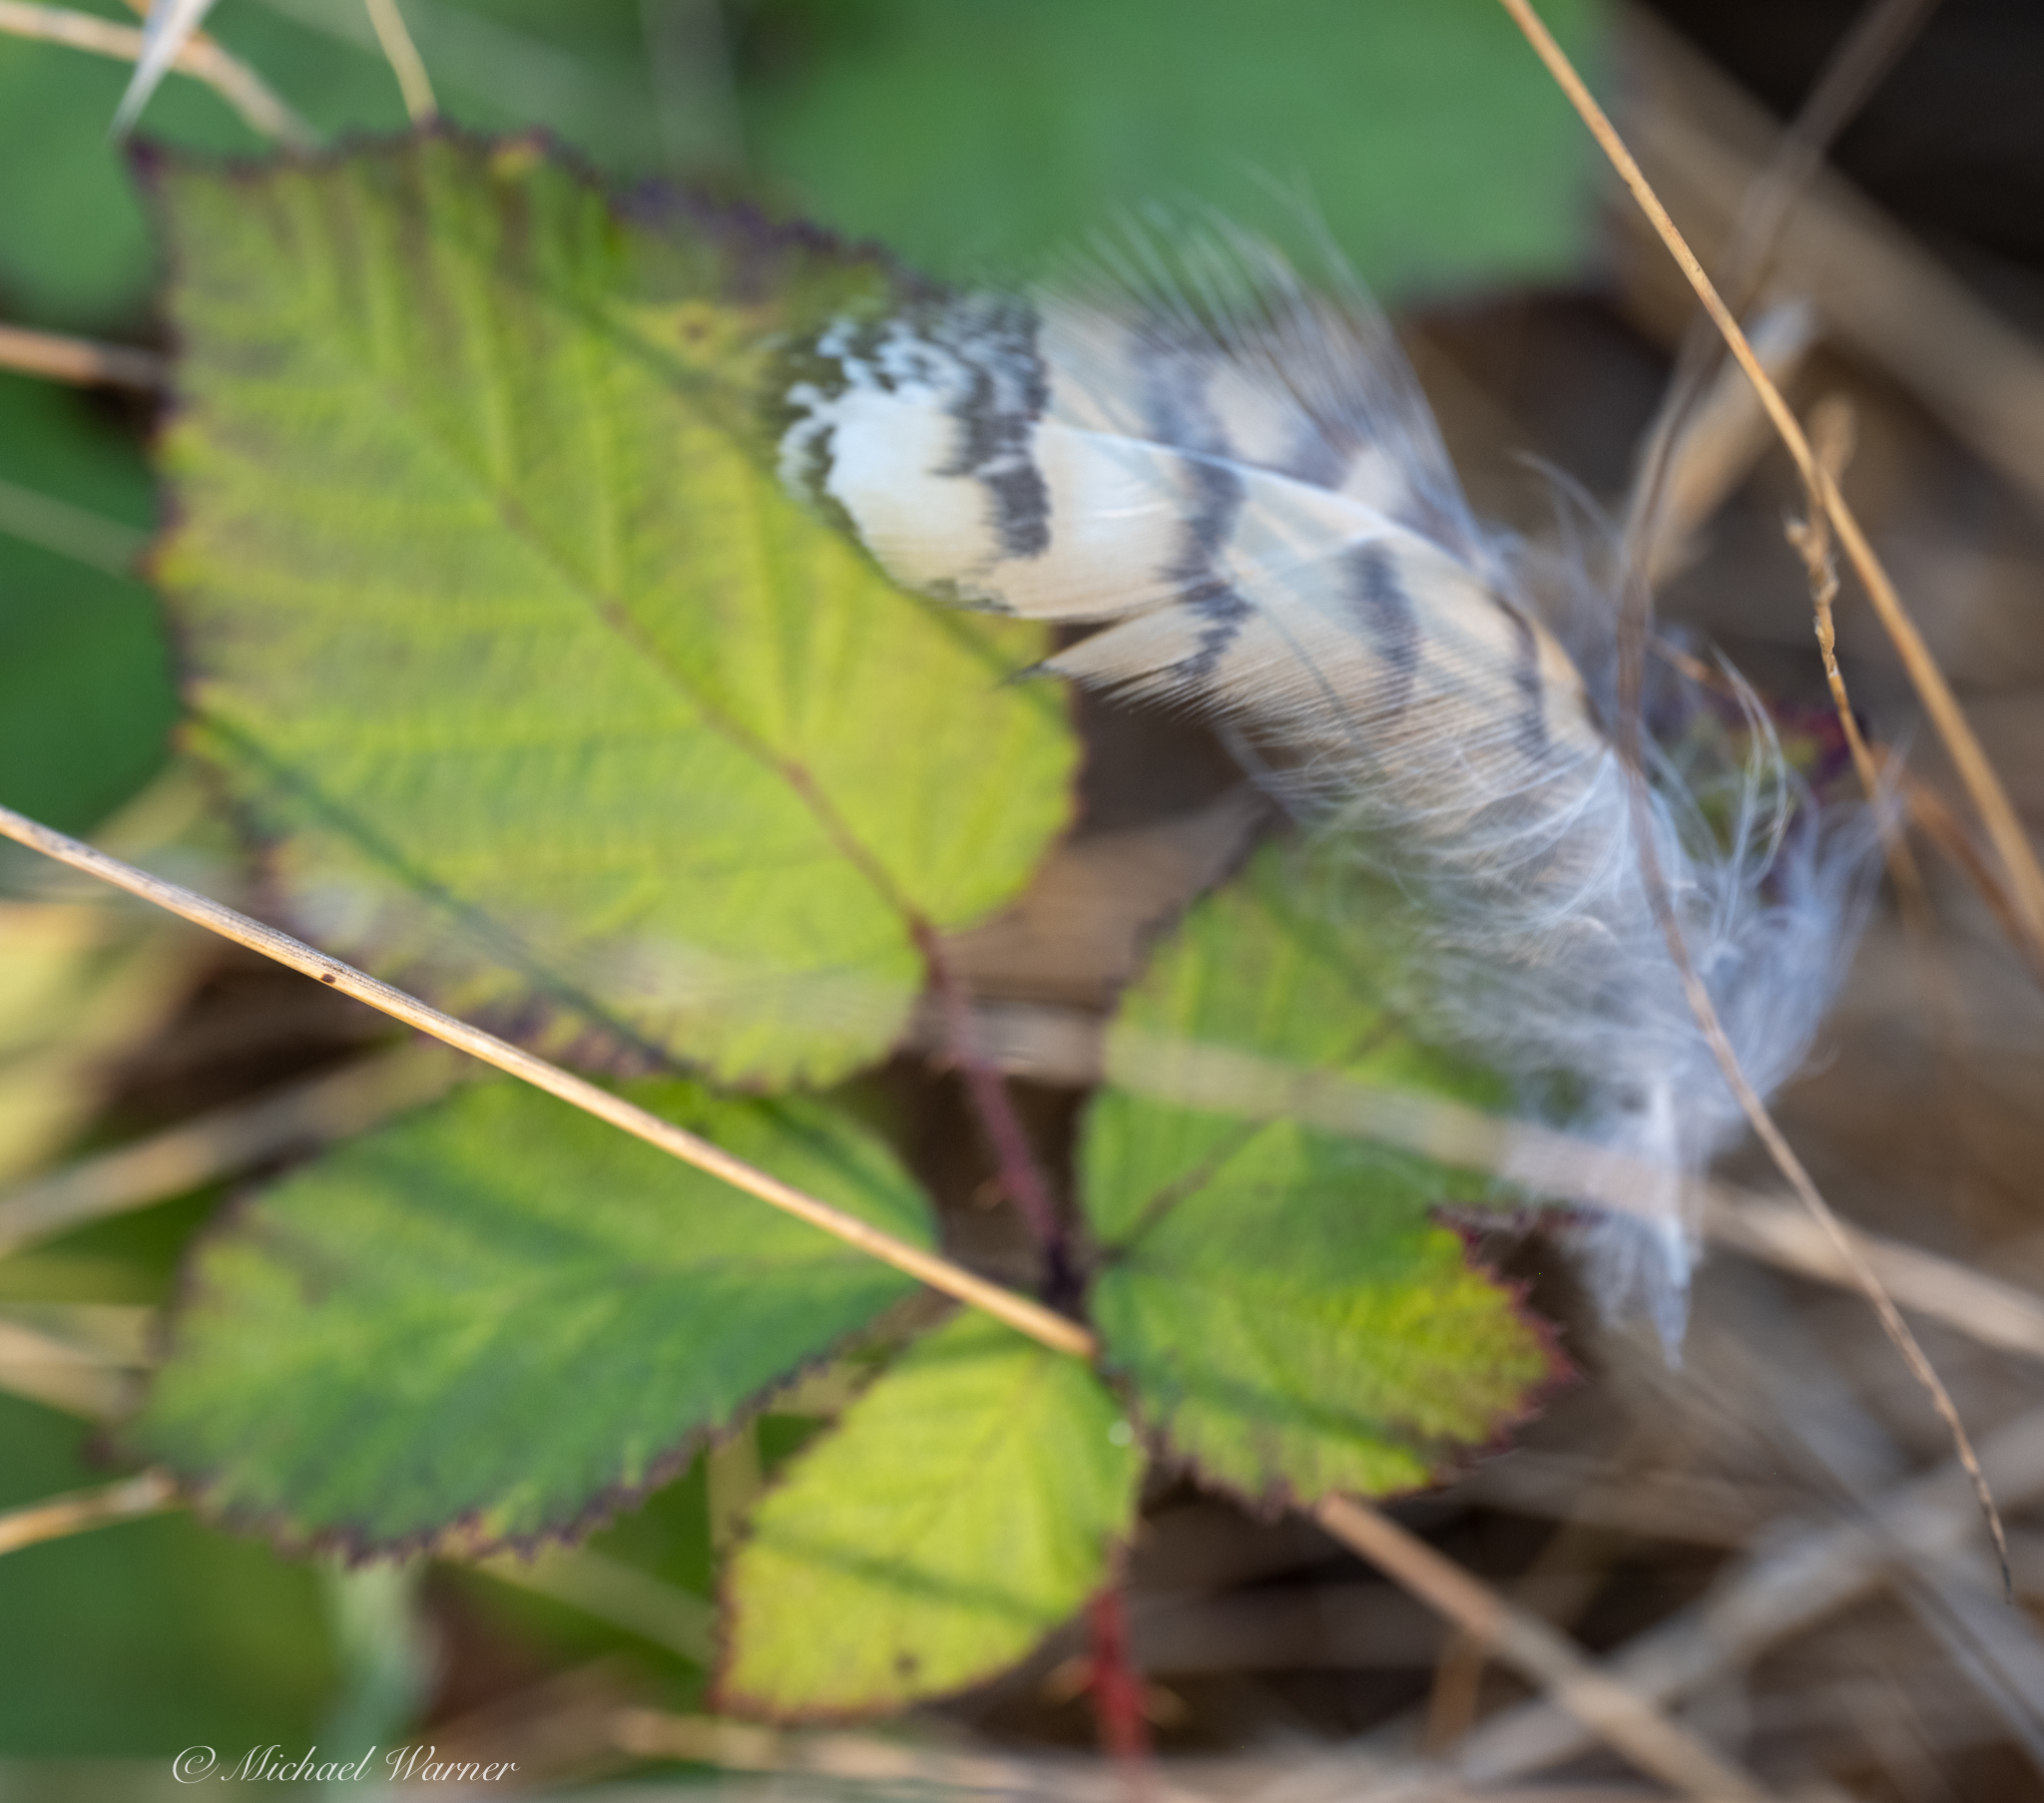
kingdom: Animalia
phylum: Chordata
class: Aves
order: Strigiformes
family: Strigidae
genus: Bubo
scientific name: Bubo virginianus
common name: Great horned owl
